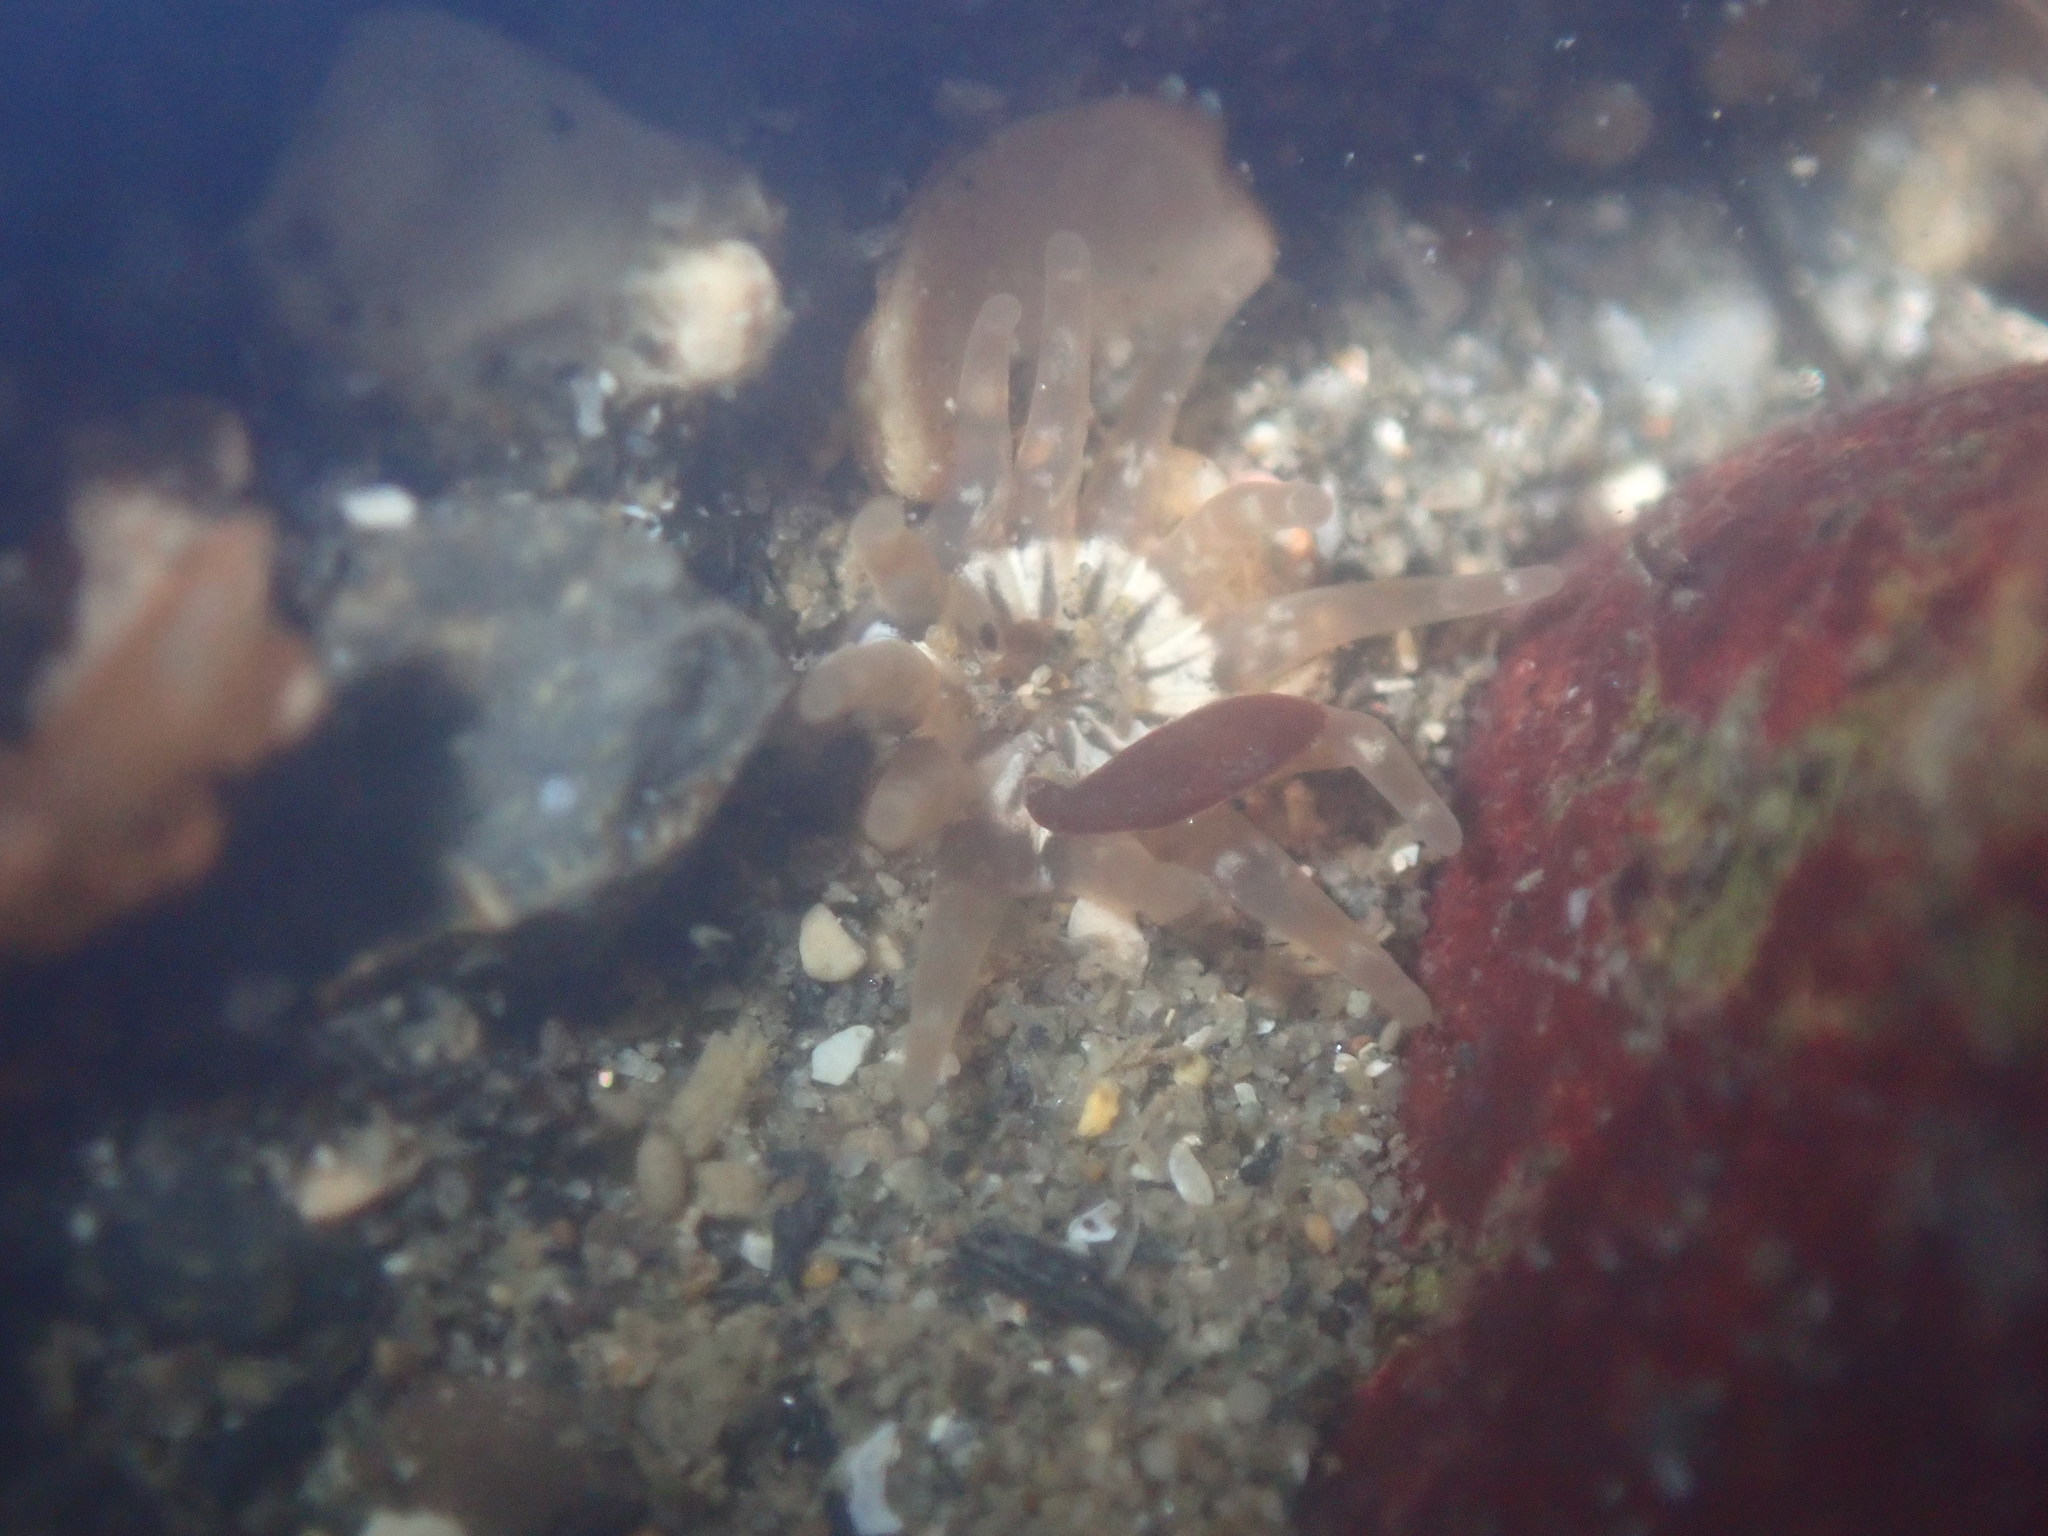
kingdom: Animalia
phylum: Cnidaria
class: Anthozoa
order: Actiniaria
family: Halcampidae
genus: Halcampa
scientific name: Halcampa crypta
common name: Cryptic burrowing anemone
